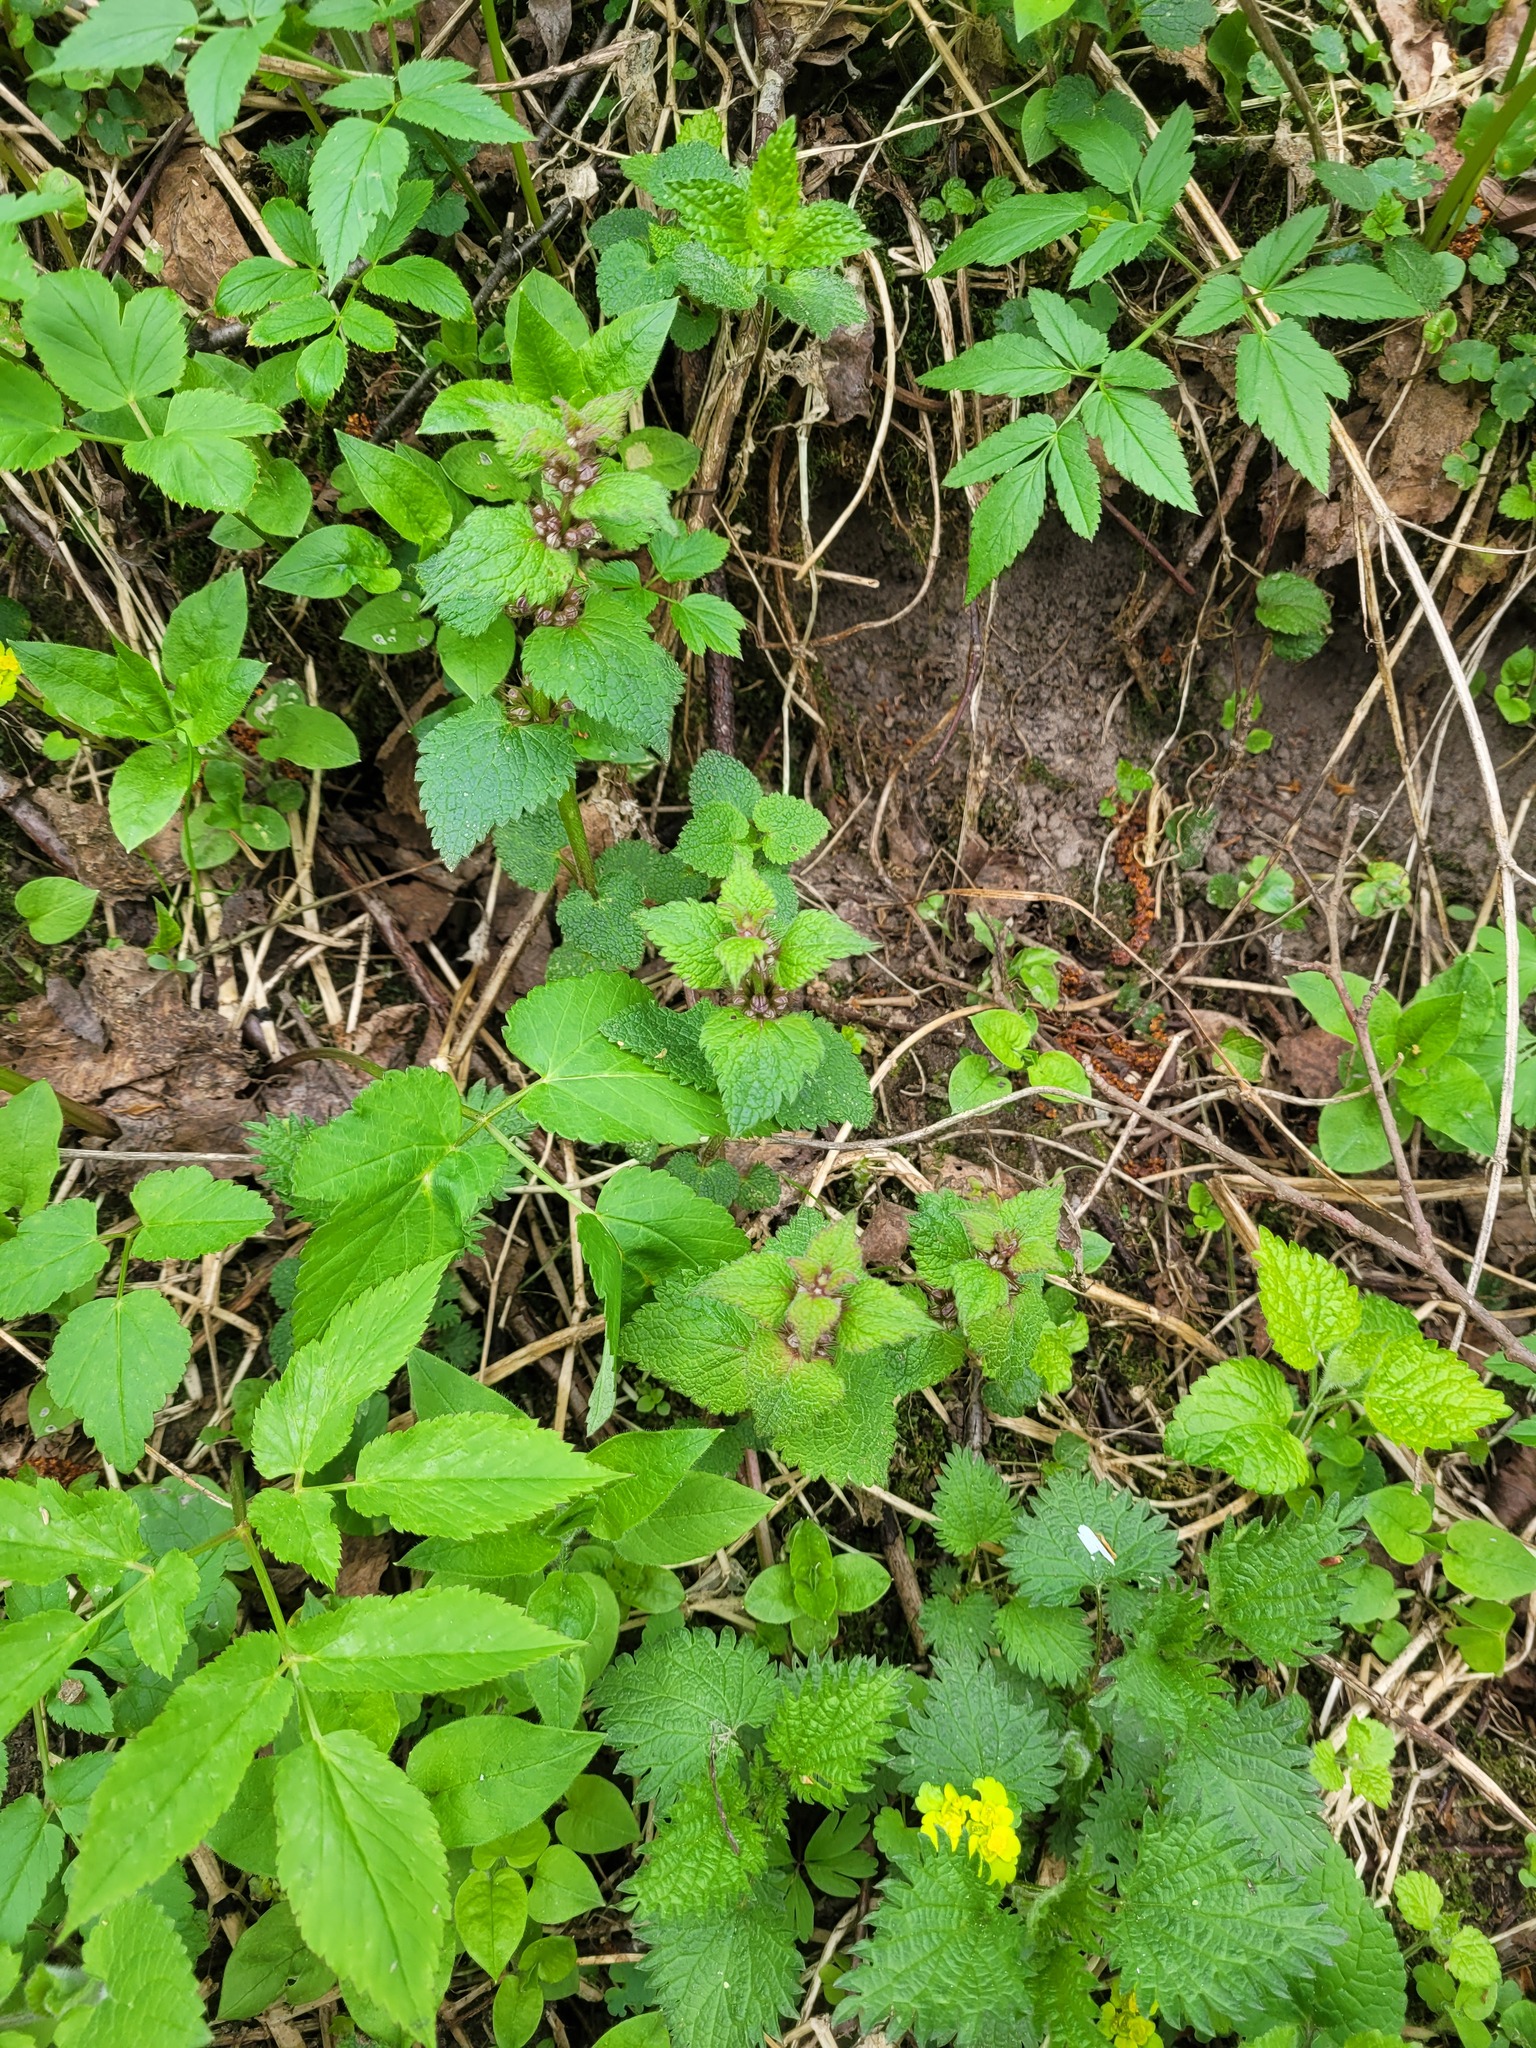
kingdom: Plantae
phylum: Tracheophyta
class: Magnoliopsida
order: Lamiales
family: Lamiaceae
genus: Lamium
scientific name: Lamium maculatum
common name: Spotted dead-nettle
